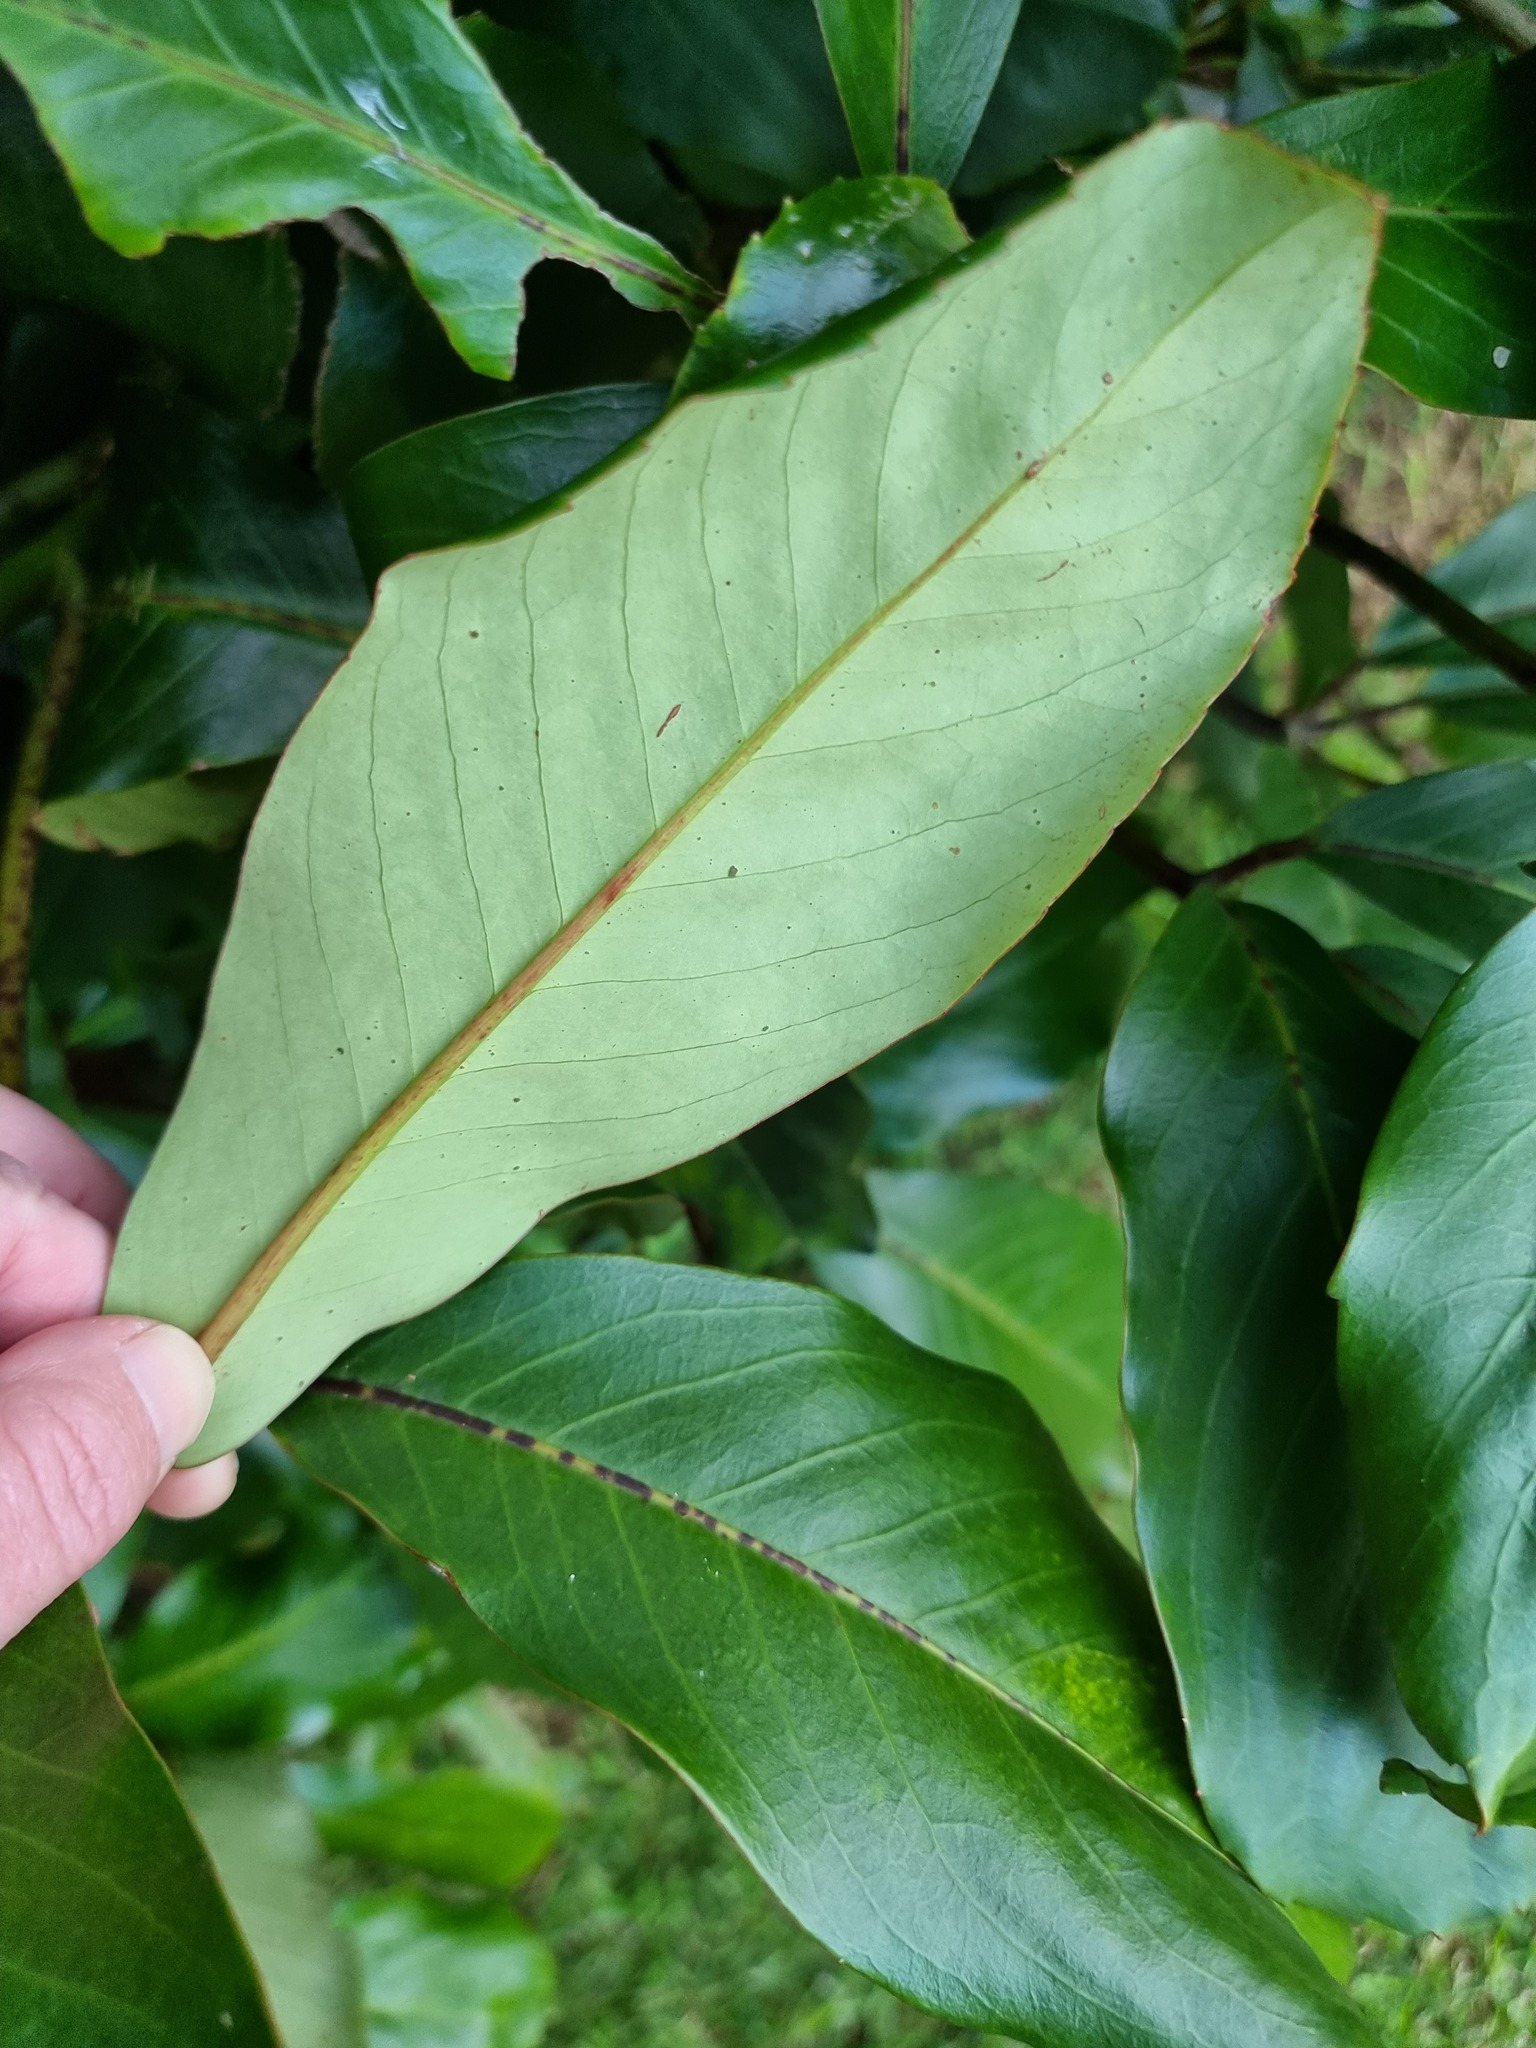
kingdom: Plantae
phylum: Tracheophyta
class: Magnoliopsida
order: Apiales
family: Araliaceae
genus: Neopanax
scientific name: Neopanax laetus
